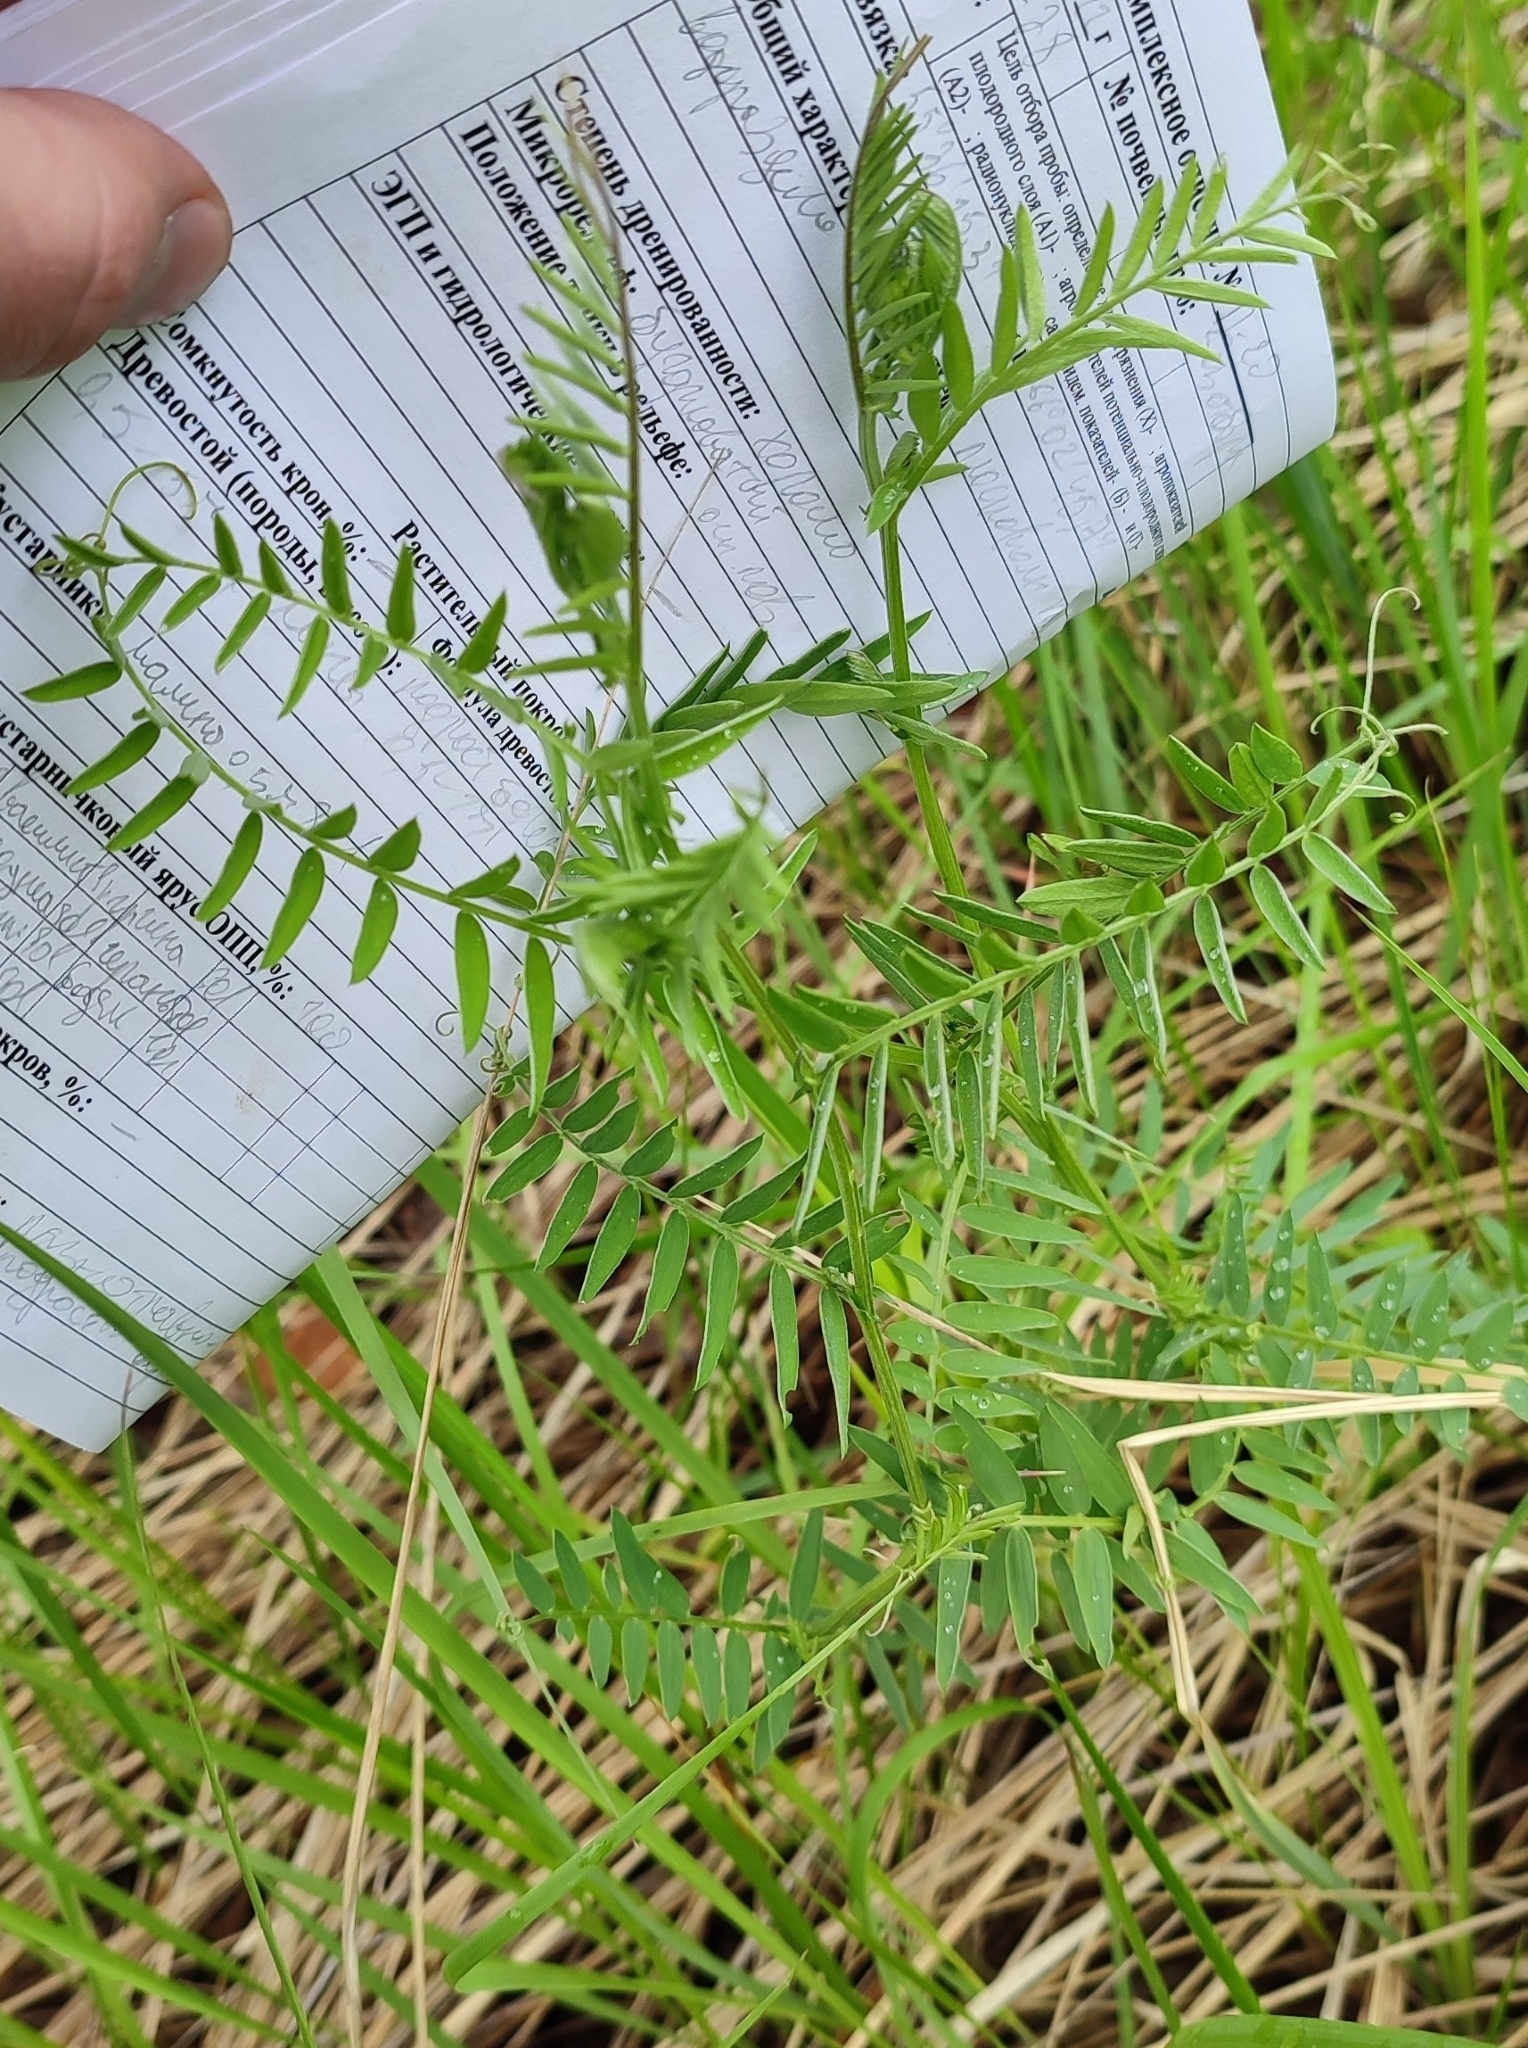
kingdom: Plantae
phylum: Tracheophyta
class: Magnoliopsida
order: Fabales
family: Fabaceae
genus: Vicia
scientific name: Vicia cracca
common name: Bird vetch
